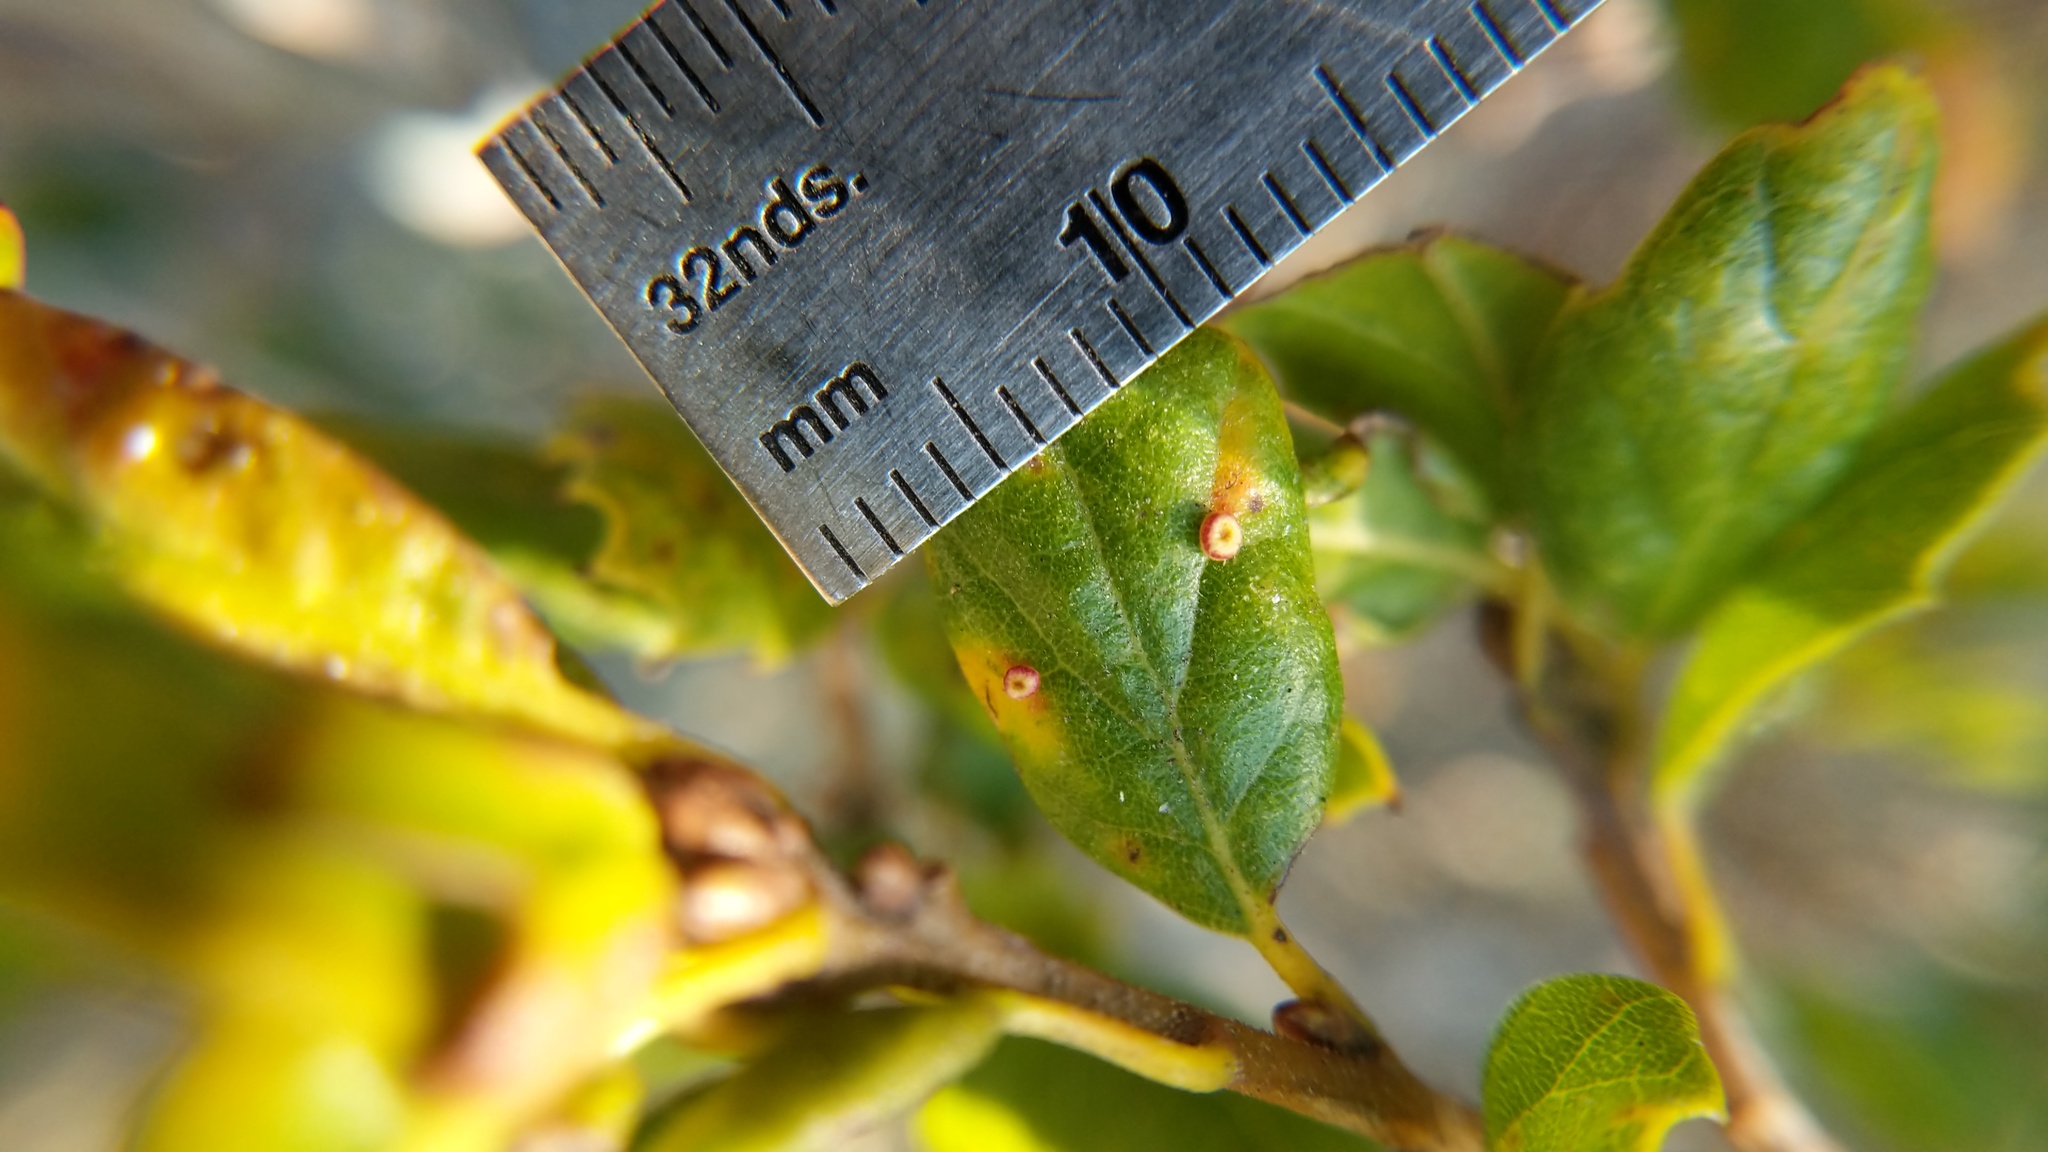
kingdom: Animalia
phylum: Arthropoda
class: Insecta
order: Hymenoptera
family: Cynipidae
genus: Dryocosmus
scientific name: Dryocosmus
